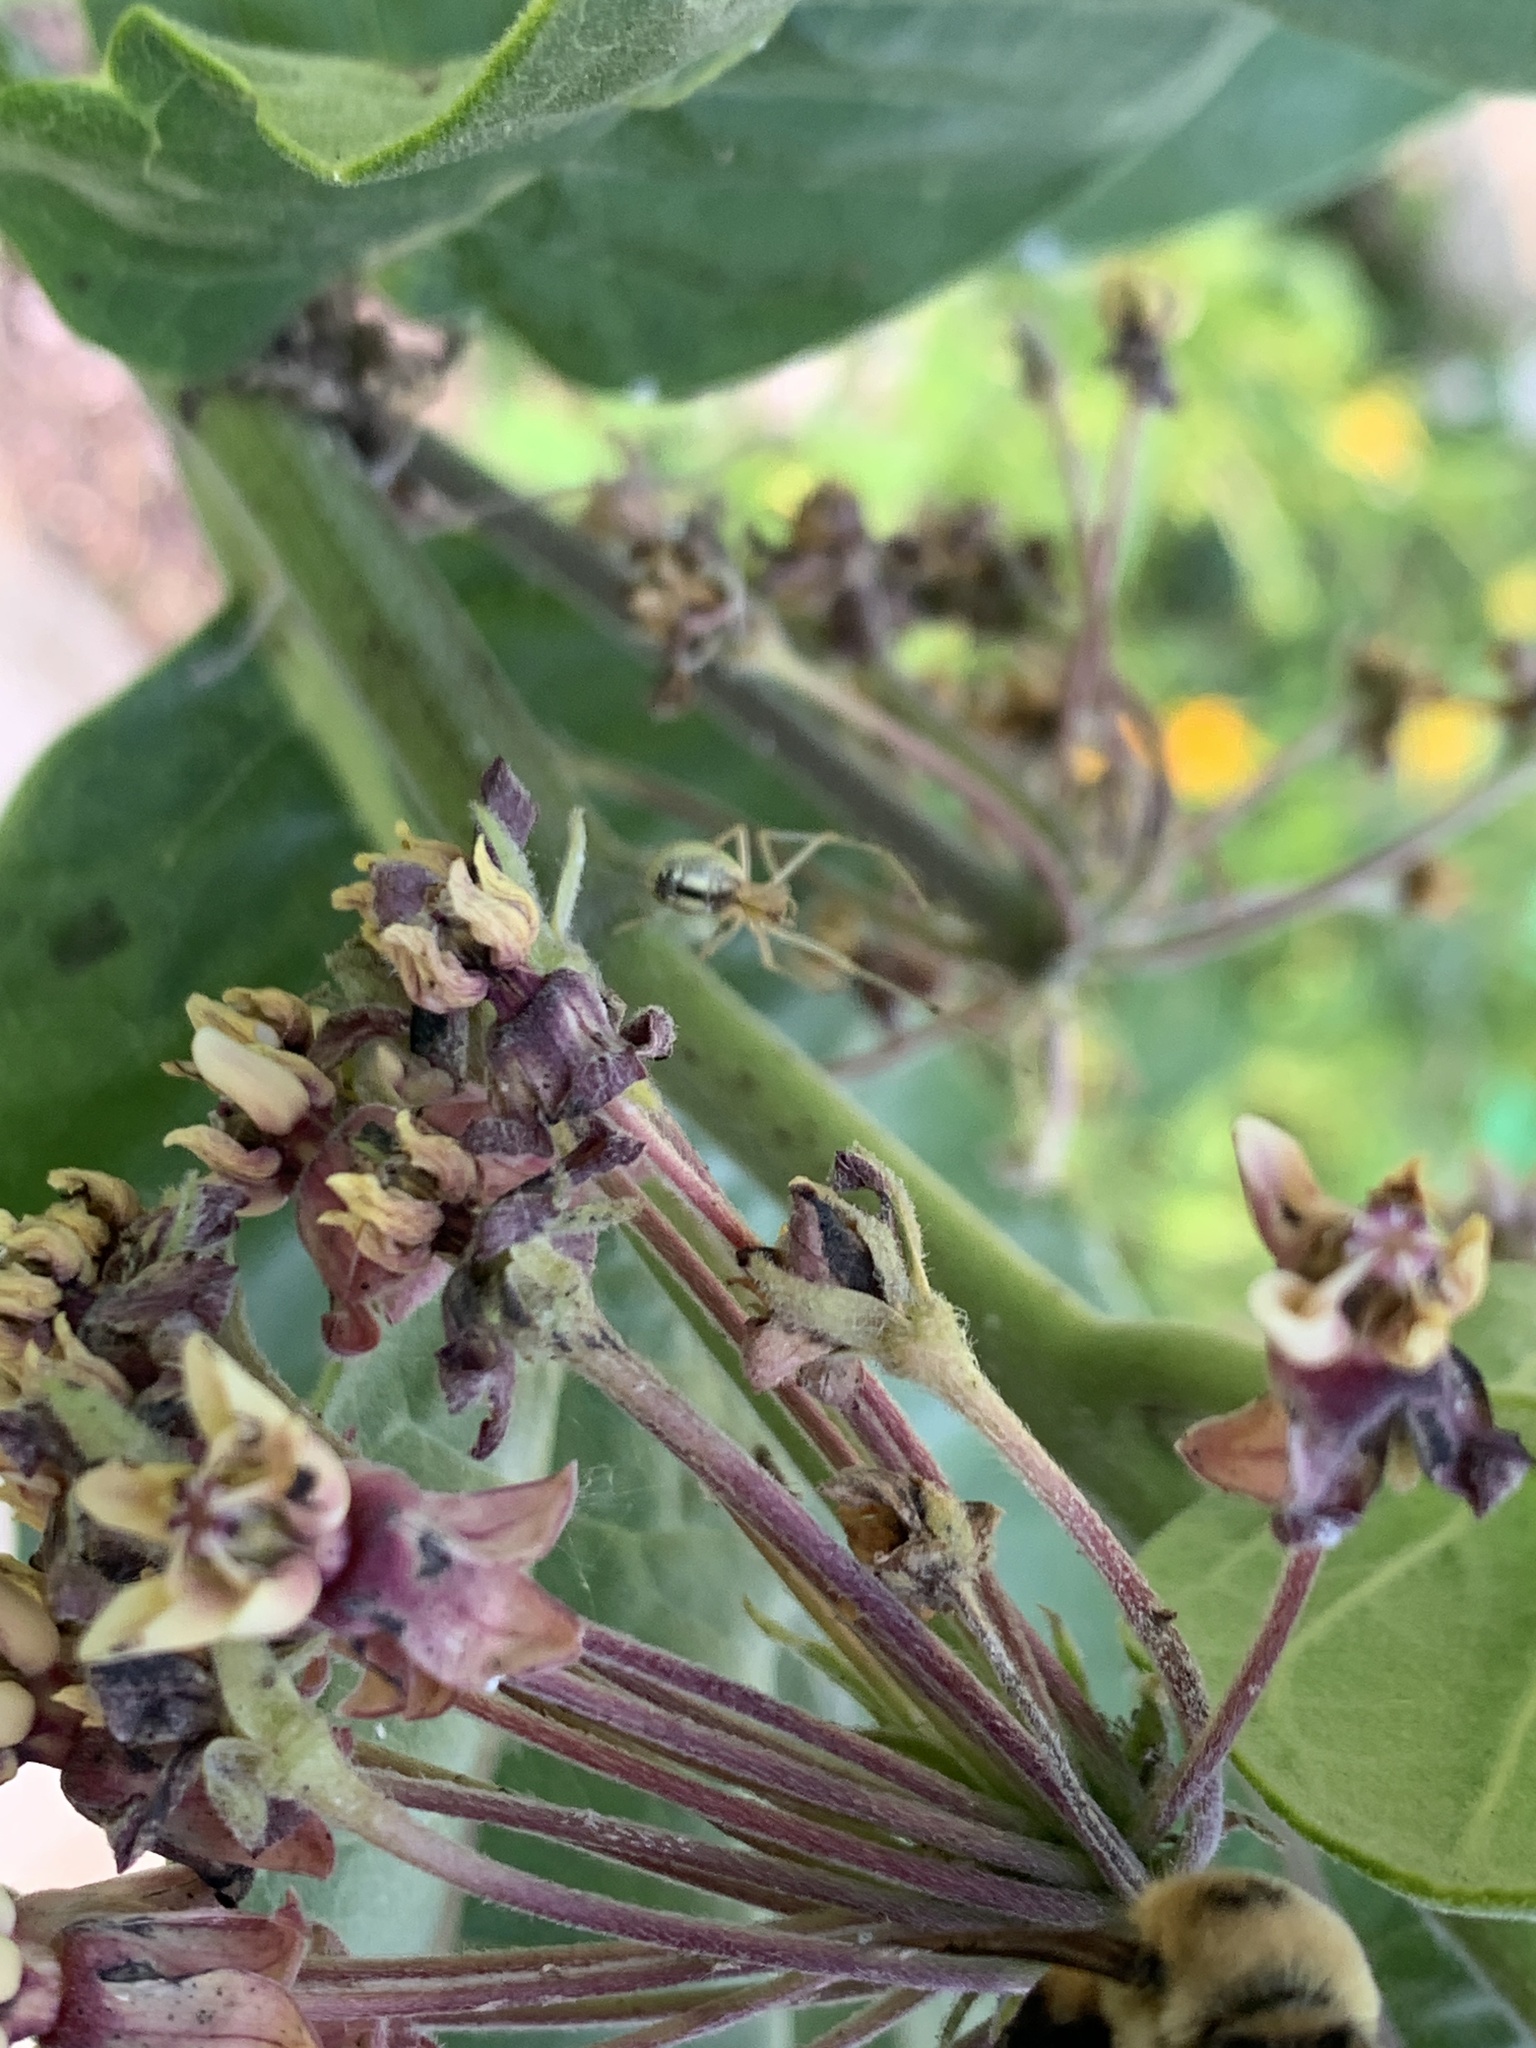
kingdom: Animalia
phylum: Arthropoda
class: Arachnida
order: Araneae
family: Theridiidae
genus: Enoplognatha
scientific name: Enoplognatha ovata
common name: Common candy-striped spider
